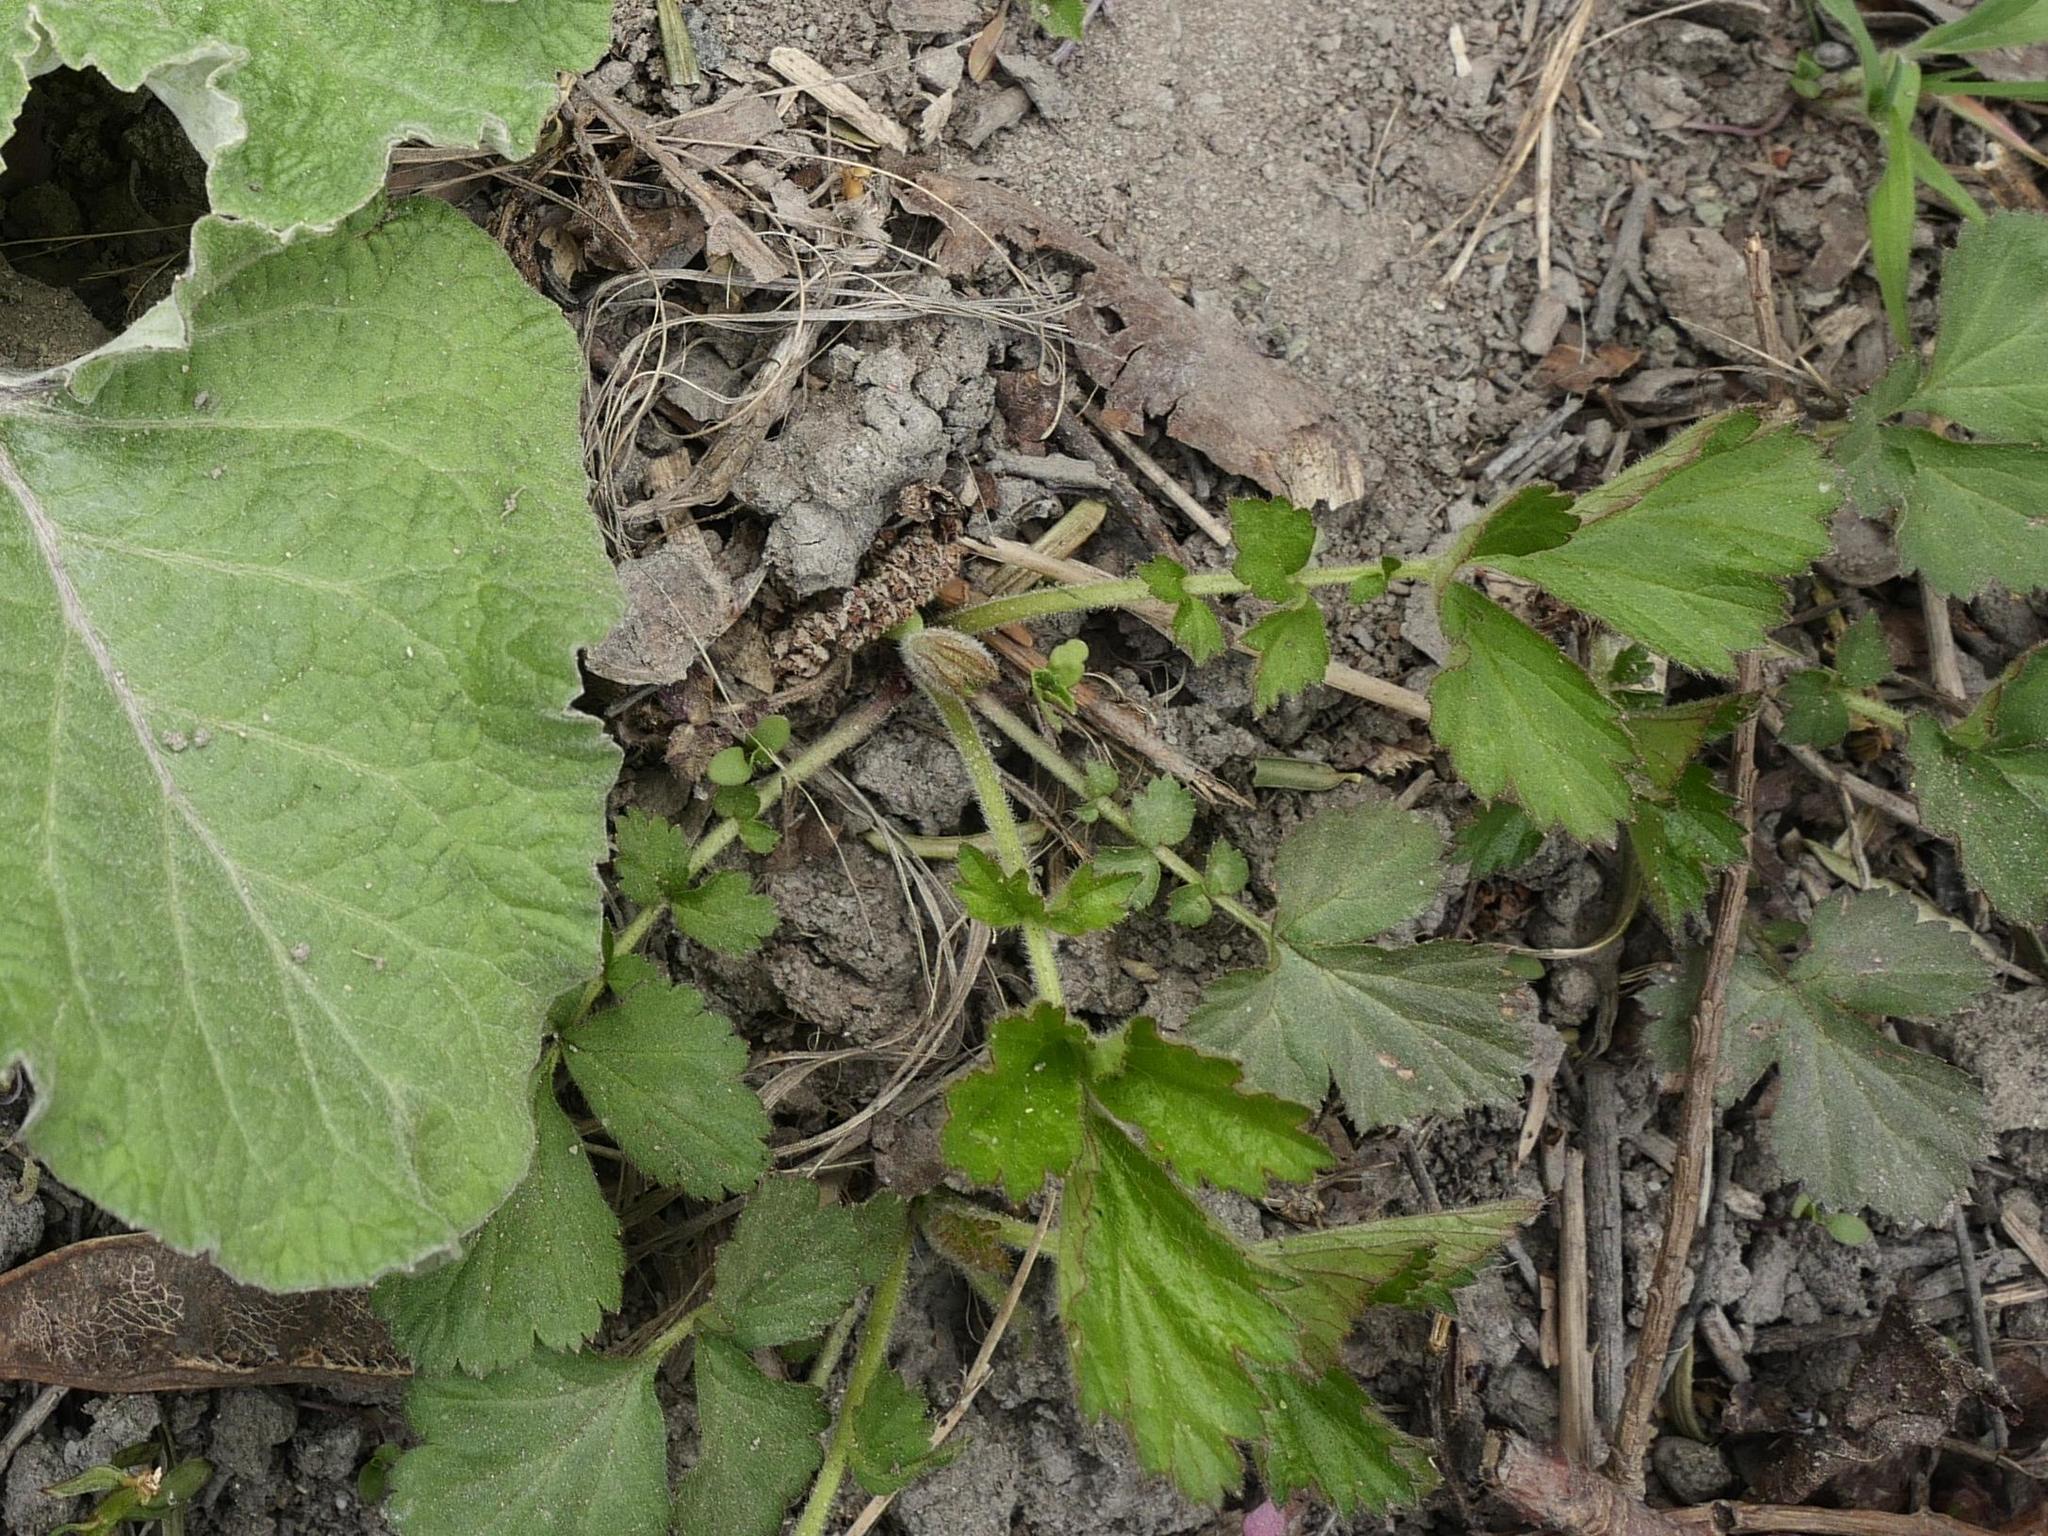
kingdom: Plantae
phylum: Tracheophyta
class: Magnoliopsida
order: Rosales
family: Rosaceae
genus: Geum
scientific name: Geum urbanum
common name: Wood avens
